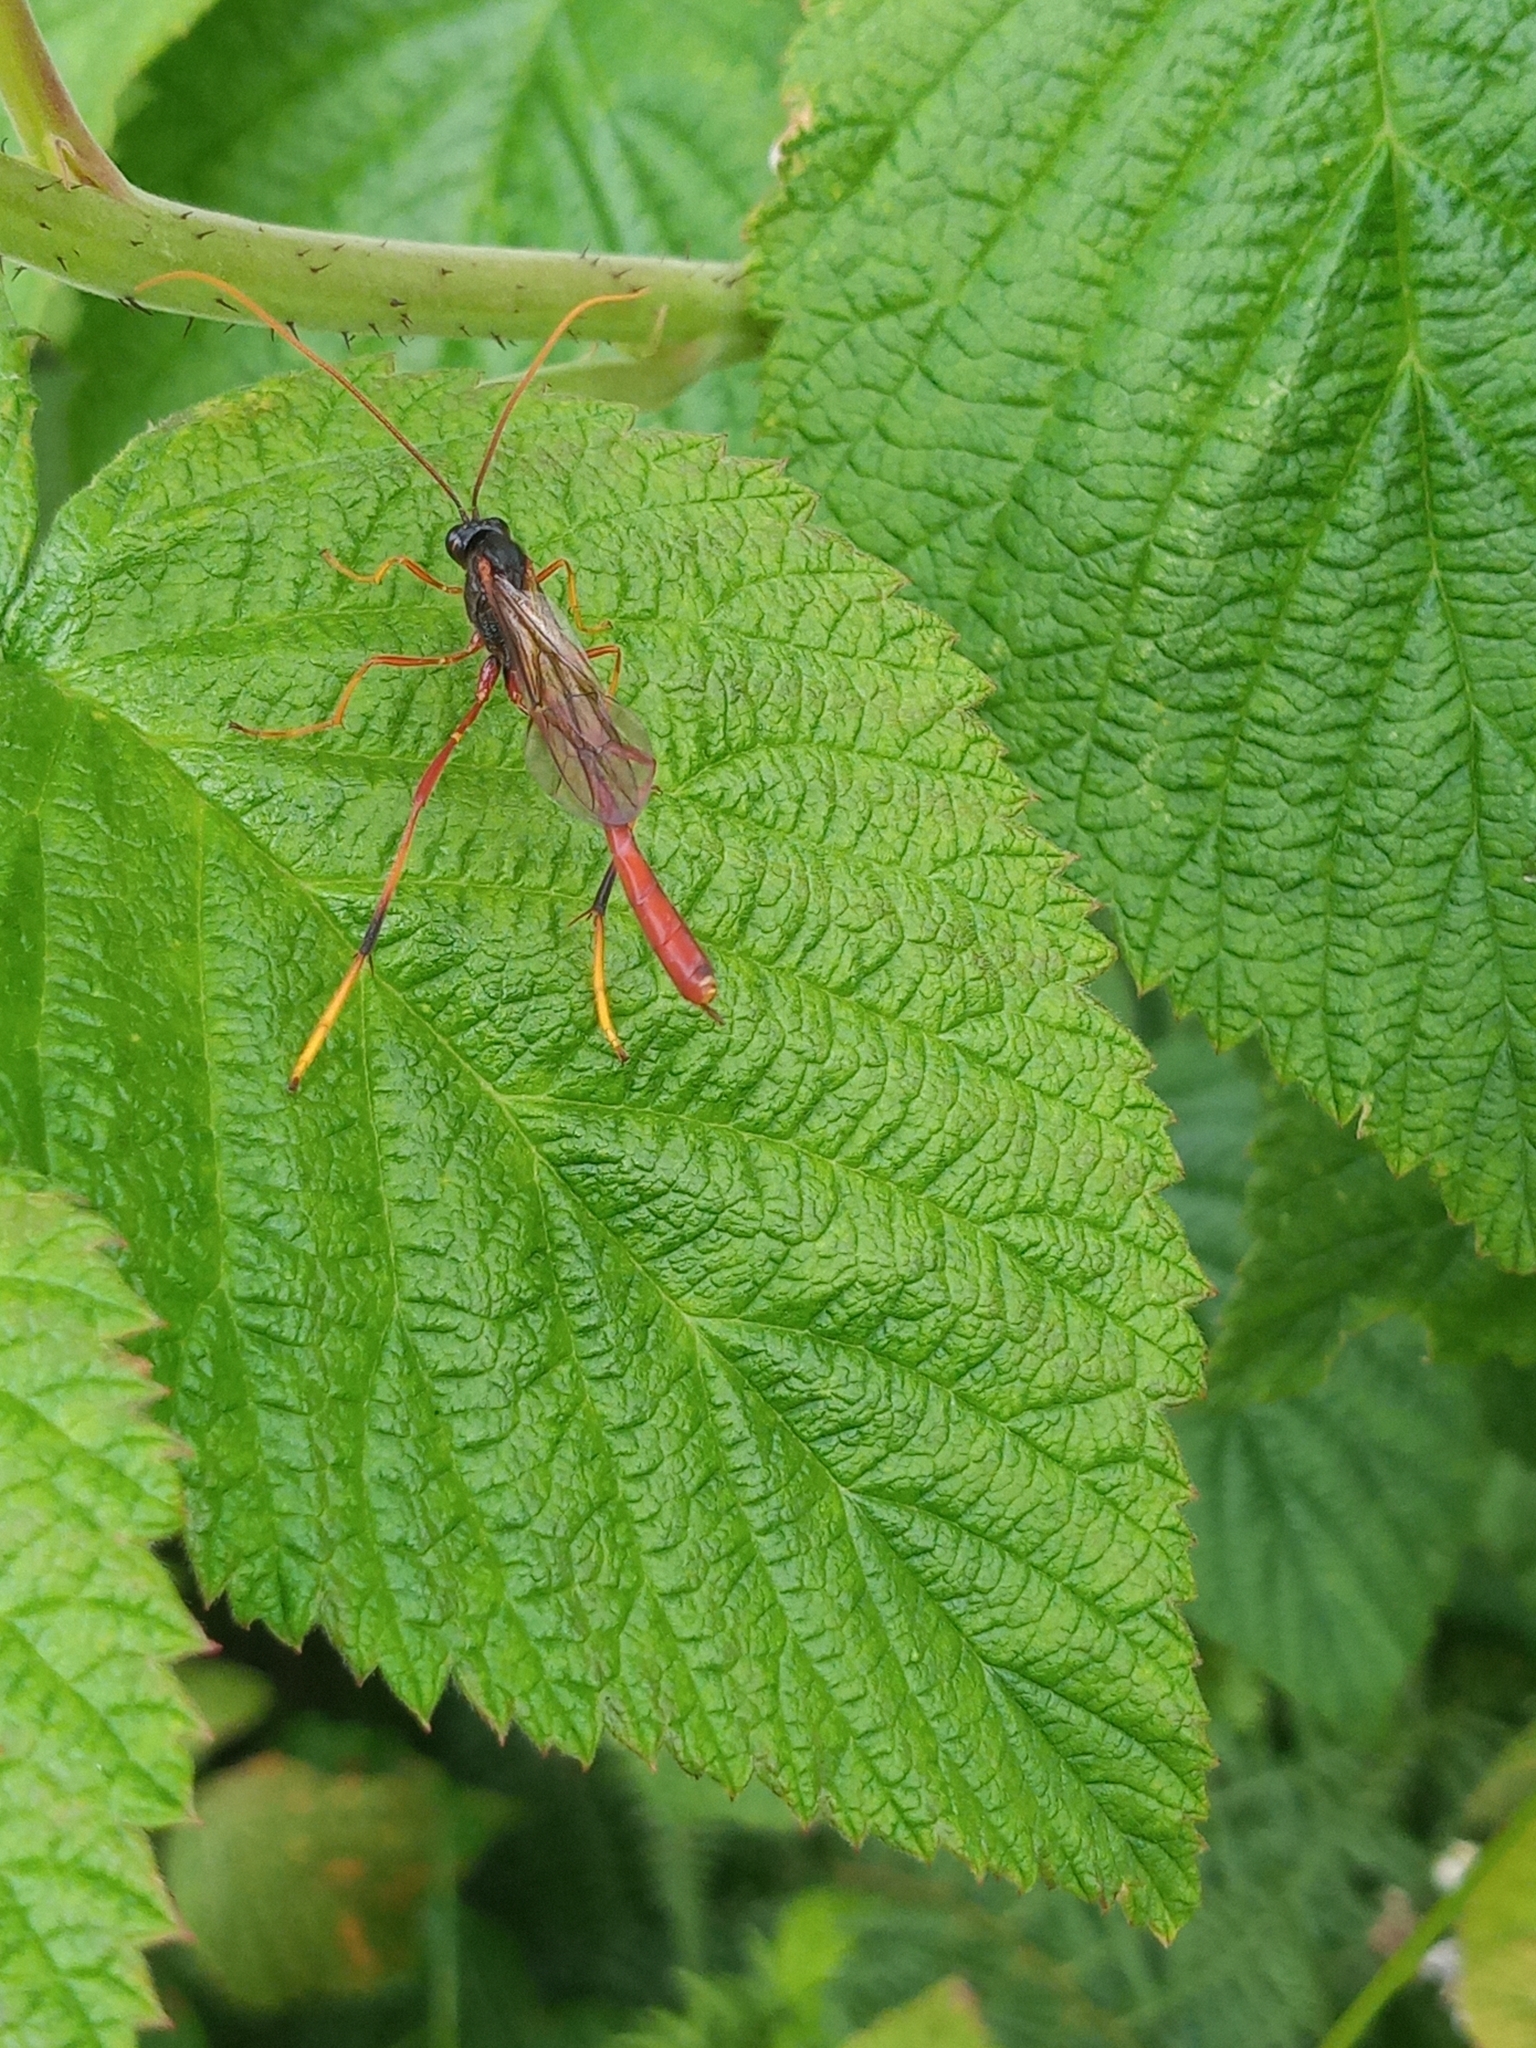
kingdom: Animalia
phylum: Arthropoda
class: Insecta
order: Hymenoptera
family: Ichneumonidae
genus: Heteropelma
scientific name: Heteropelma amictum
